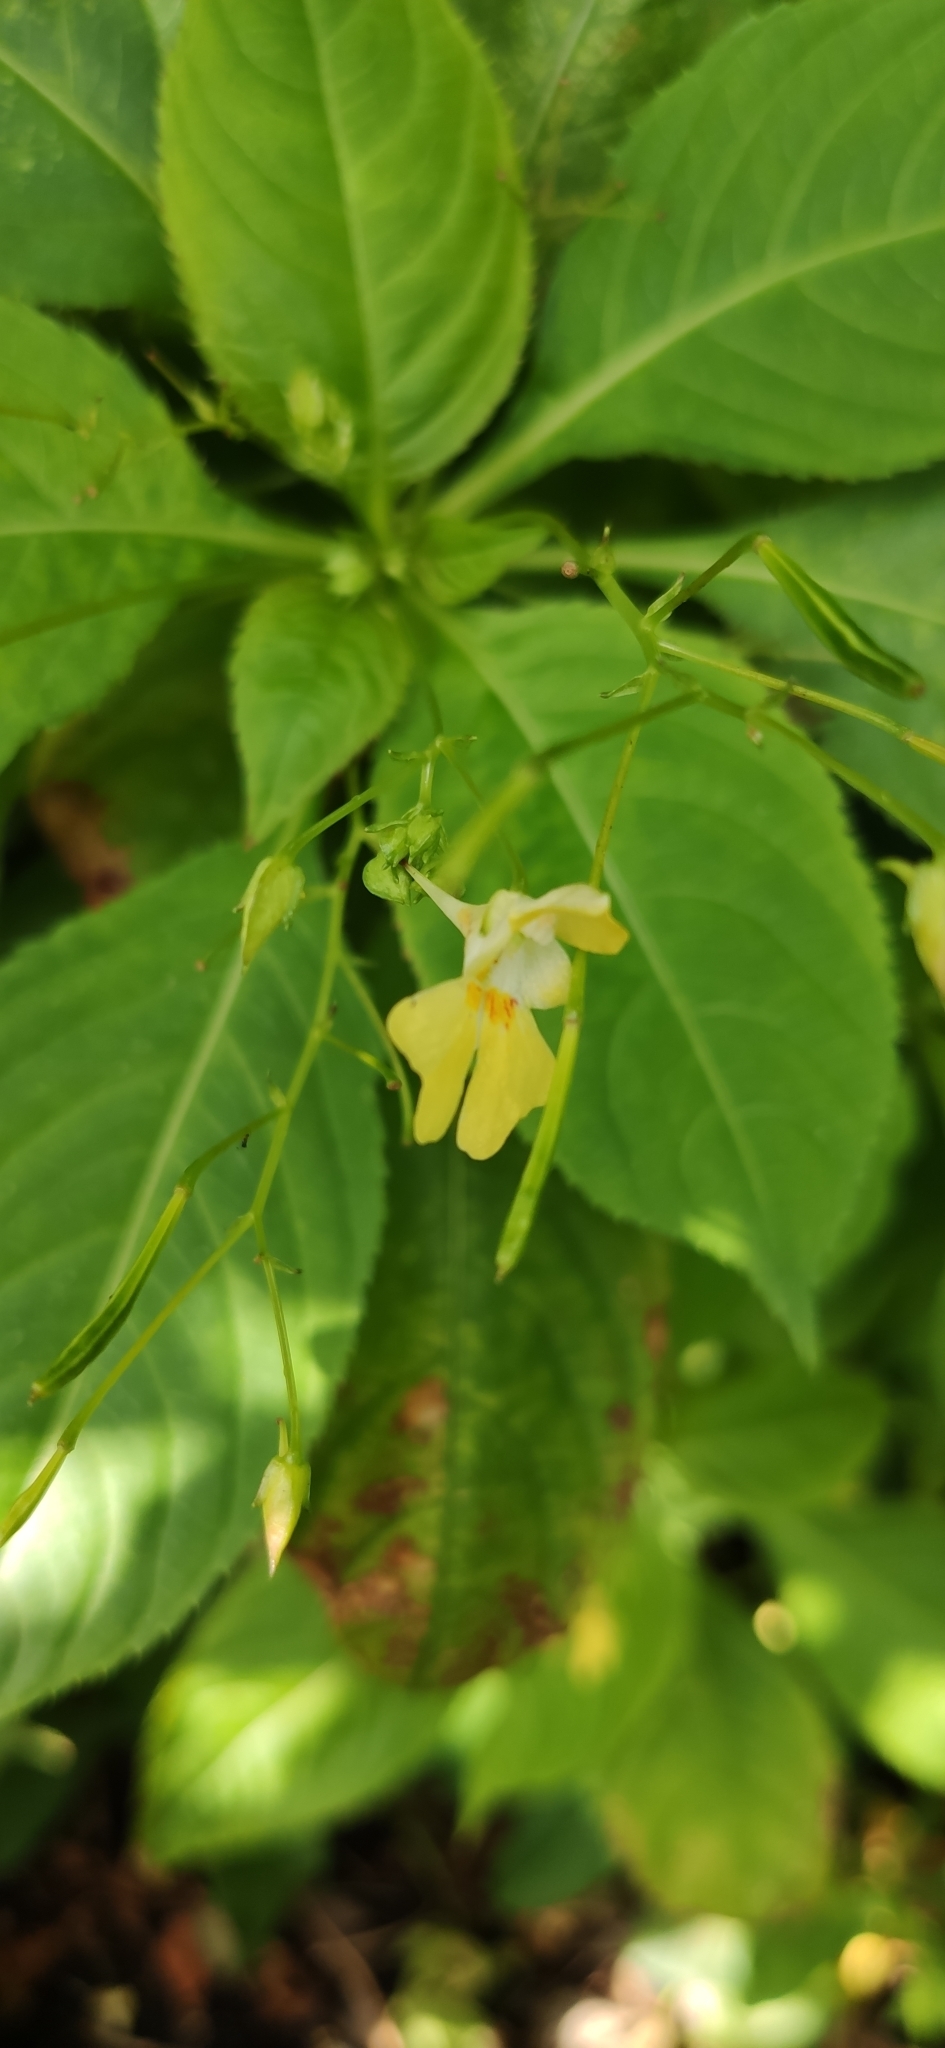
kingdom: Plantae
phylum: Tracheophyta
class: Magnoliopsida
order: Ericales
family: Balsaminaceae
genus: Impatiens
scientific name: Impatiens parviflora
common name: Small balsam
